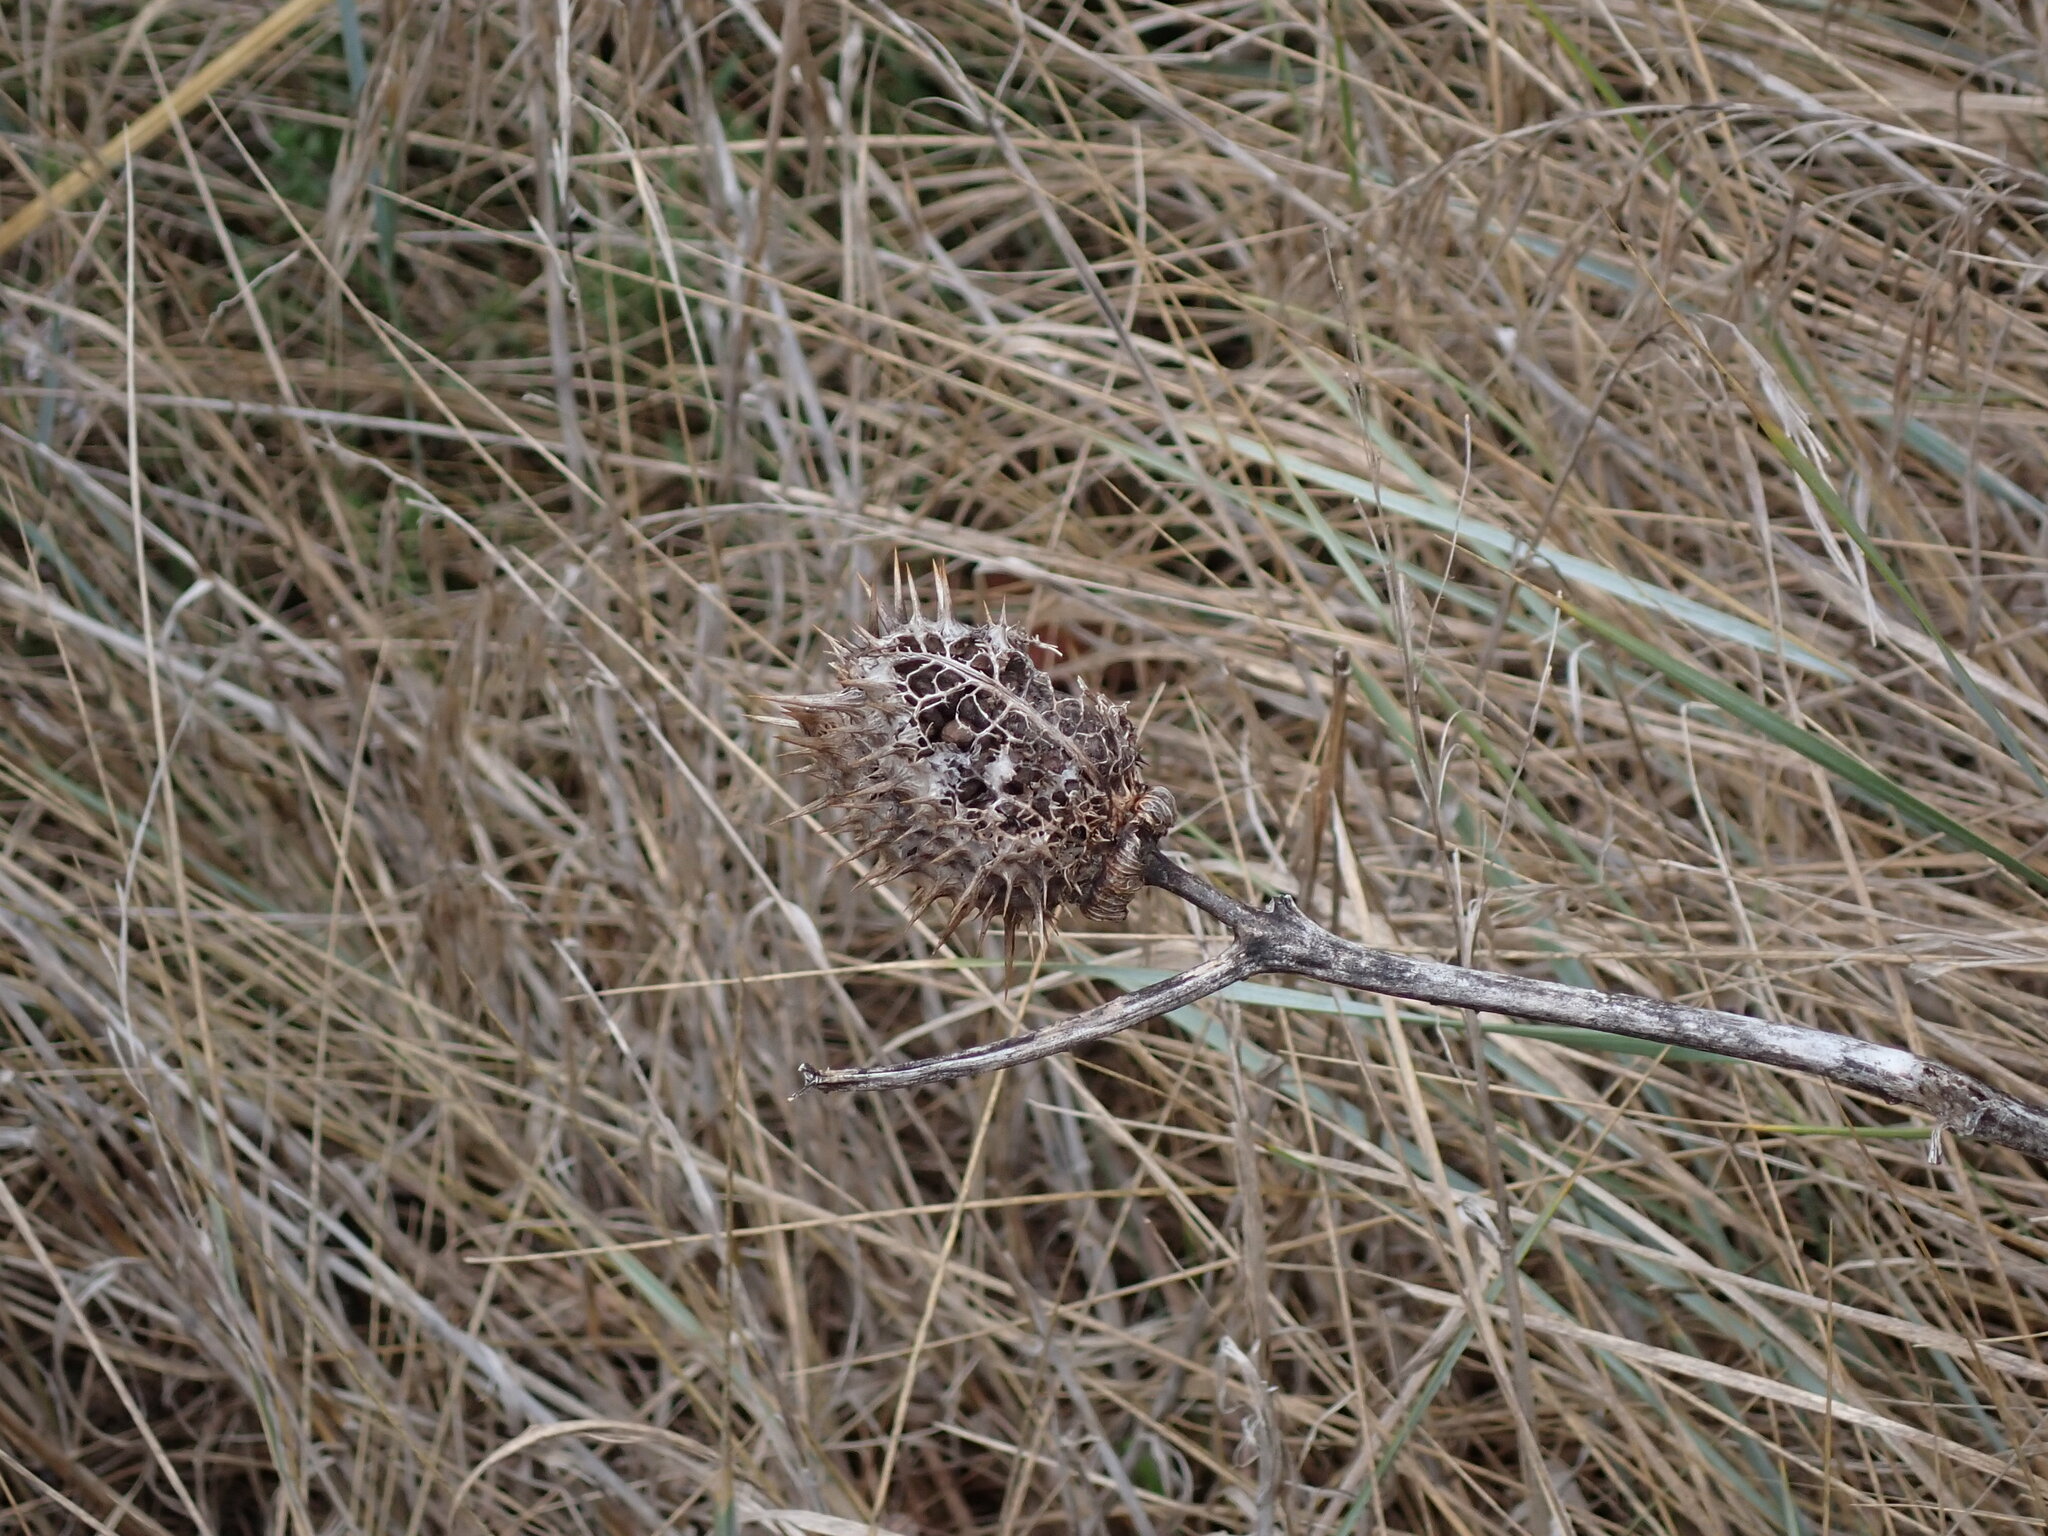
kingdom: Plantae
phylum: Tracheophyta
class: Magnoliopsida
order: Solanales
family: Solanaceae
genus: Datura
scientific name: Datura stramonium
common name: Thorn-apple
